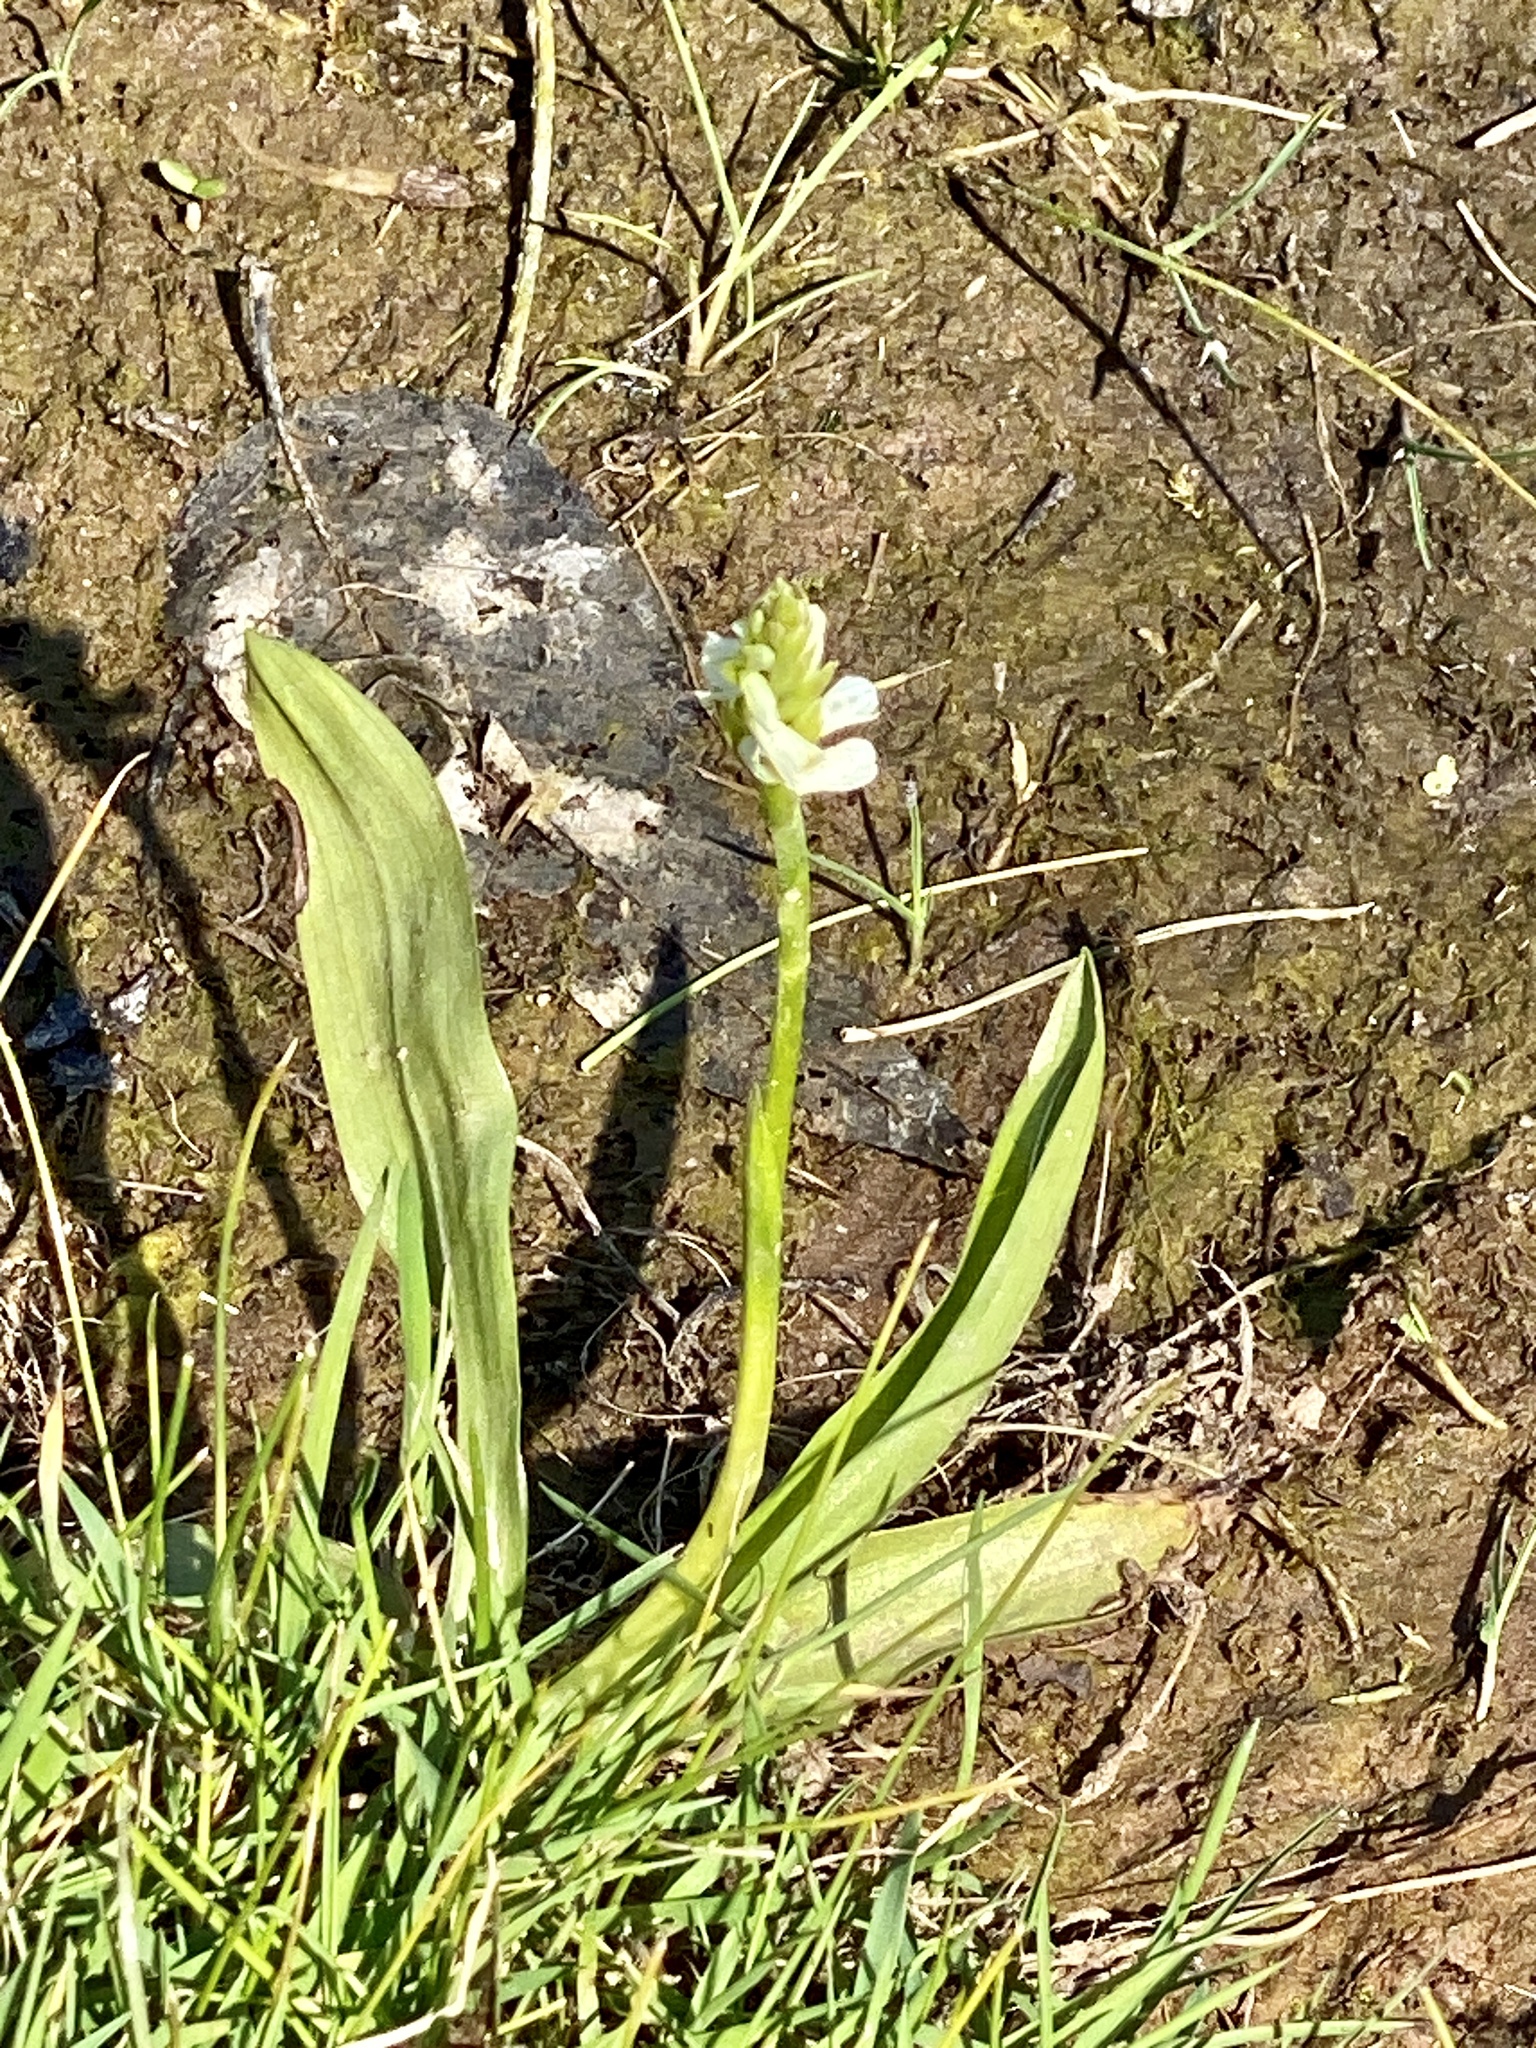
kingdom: Plantae
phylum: Tracheophyta
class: Liliopsida
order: Asparagales
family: Orchidaceae
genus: Spiranthes
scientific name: Spiranthes lucida
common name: Broad-leaved ladies'-tresses
